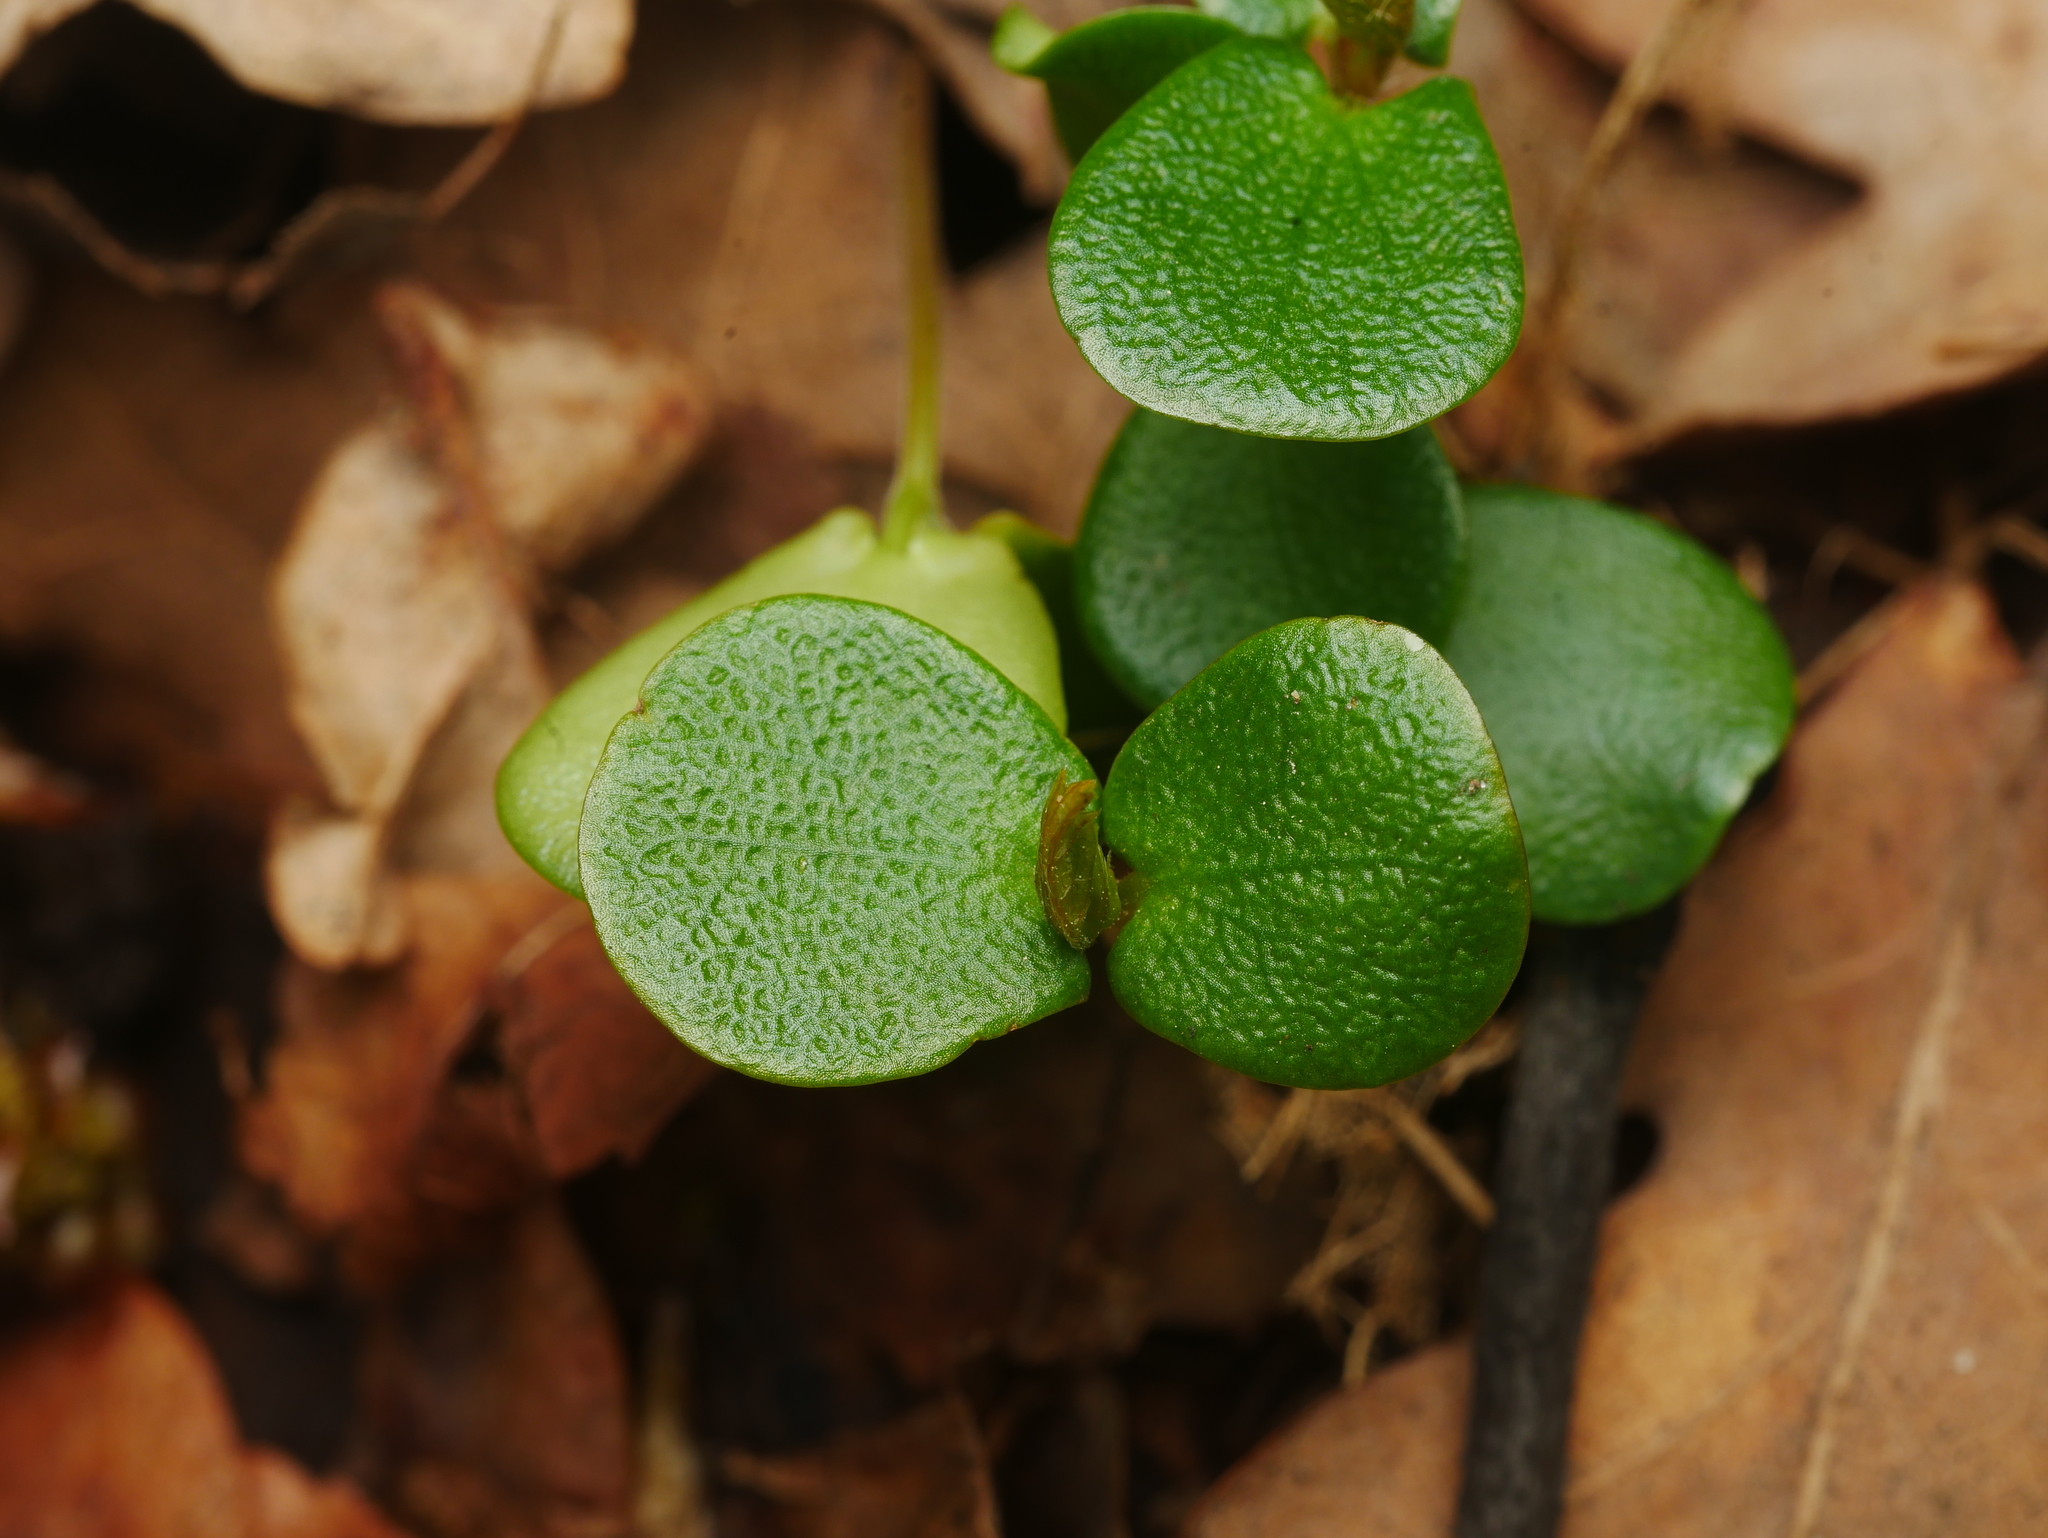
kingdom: Plantae
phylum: Tracheophyta
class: Magnoliopsida
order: Fagales
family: Betulaceae
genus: Carpinus
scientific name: Carpinus betulus
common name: Hornbeam
